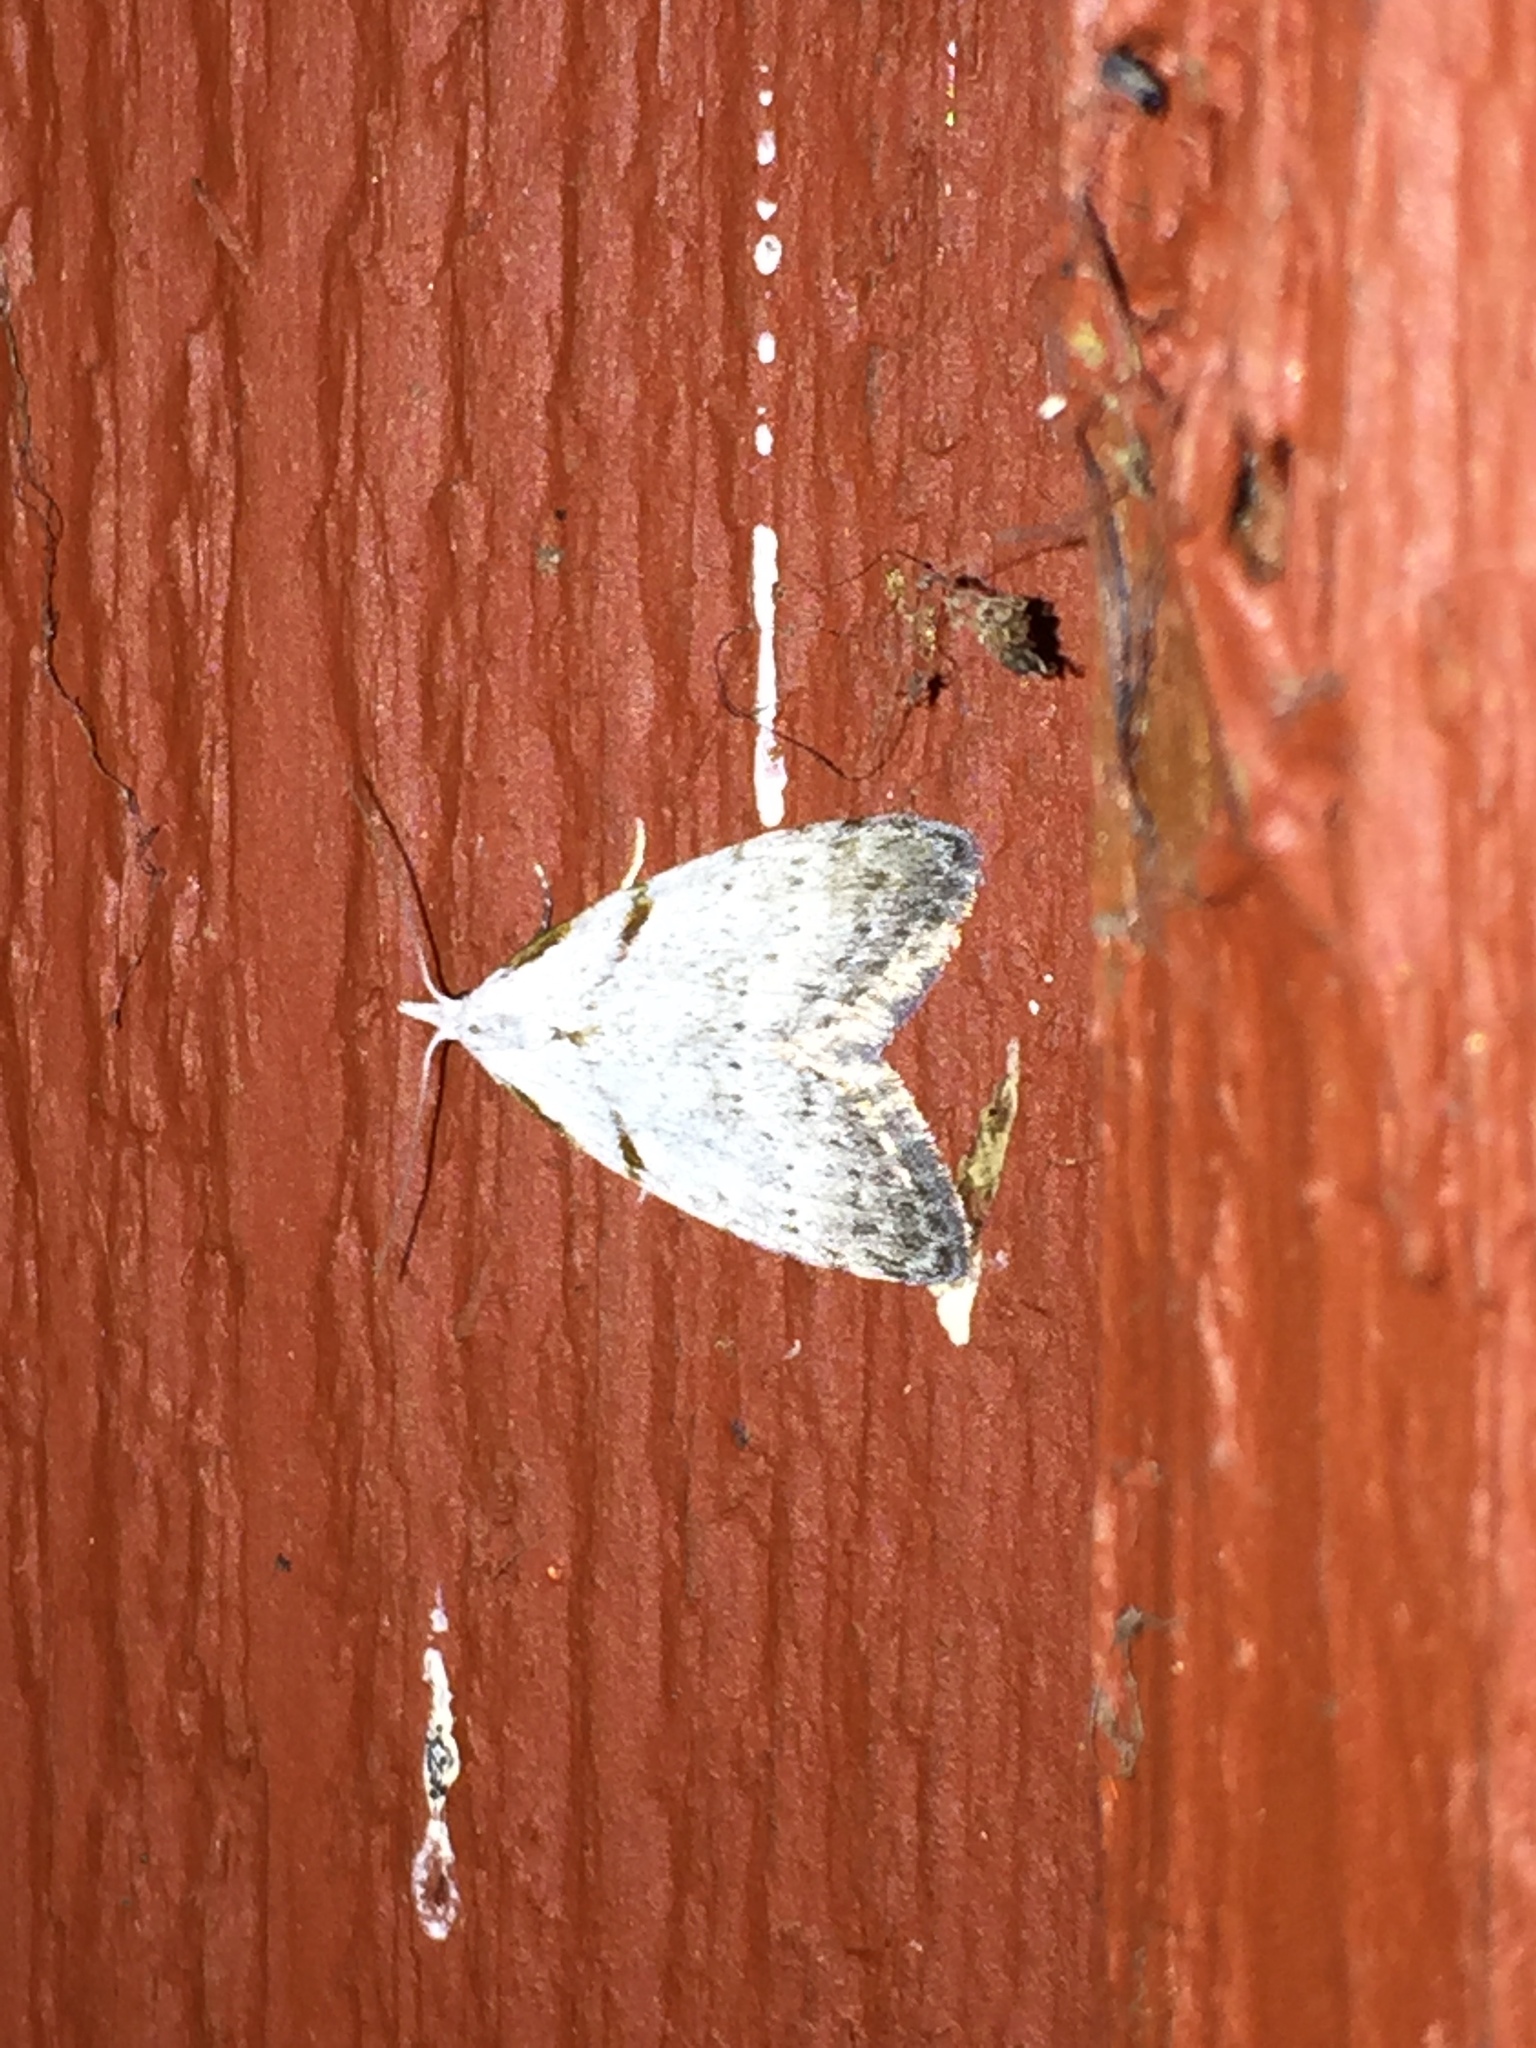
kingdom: Animalia
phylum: Arthropoda
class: Insecta
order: Lepidoptera
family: Nolidae
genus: Nola
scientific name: Nola minna
